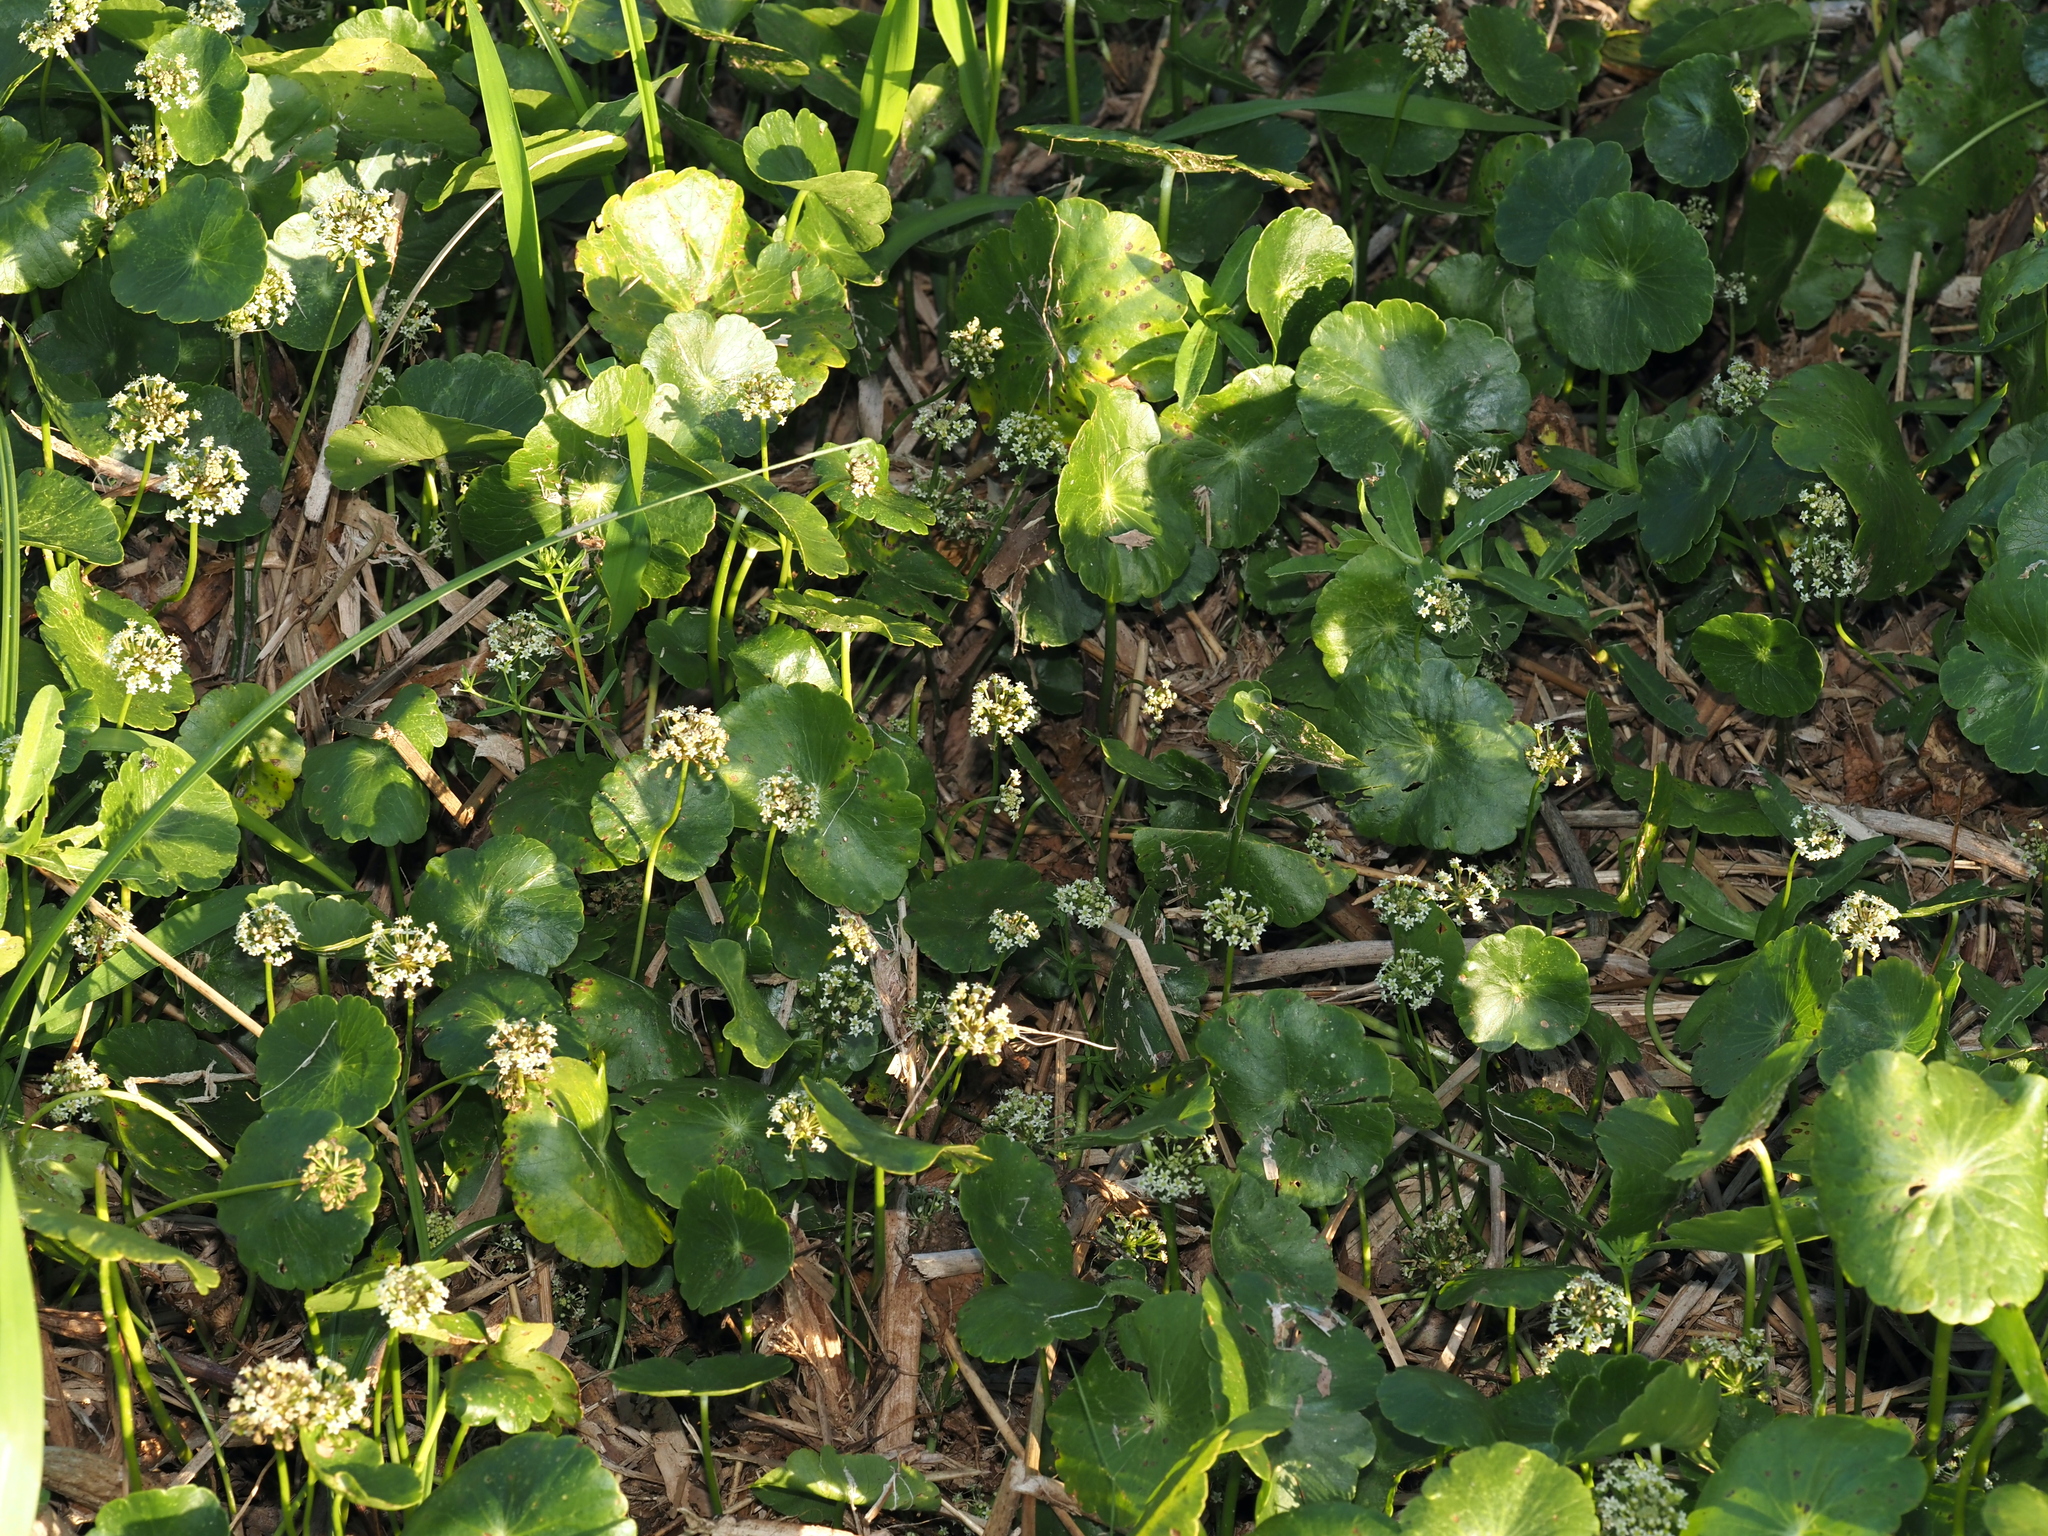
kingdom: Plantae
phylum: Tracheophyta
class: Magnoliopsida
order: Apiales
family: Araliaceae
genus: Hydrocotyle
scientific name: Hydrocotyle umbellata
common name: Water pennywort
